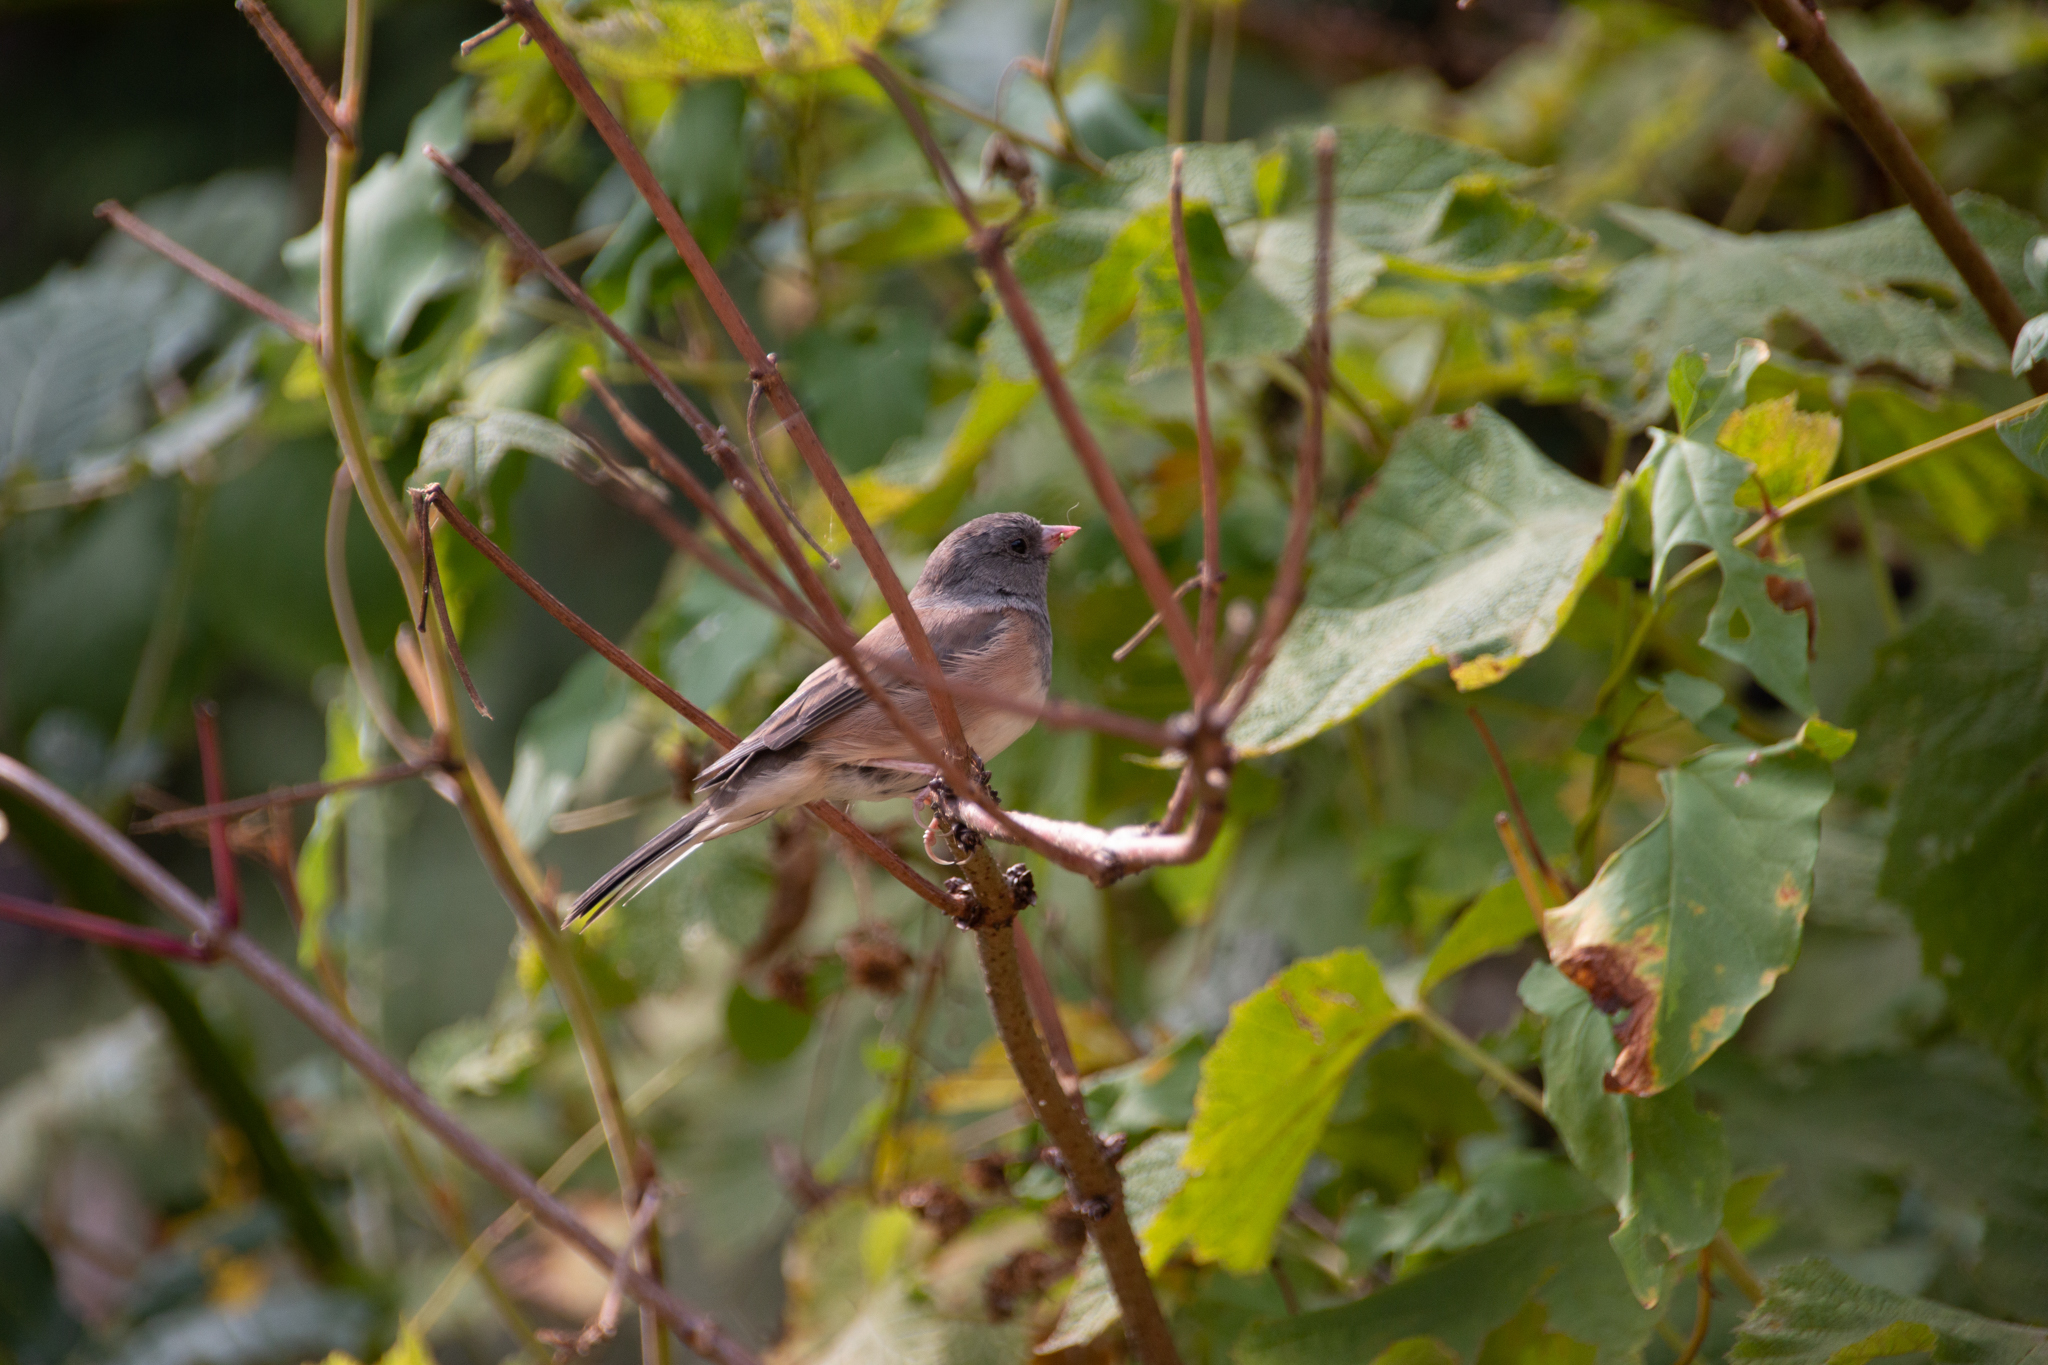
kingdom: Animalia
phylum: Chordata
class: Aves
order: Passeriformes
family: Passerellidae
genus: Junco
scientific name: Junco hyemalis
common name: Dark-eyed junco
